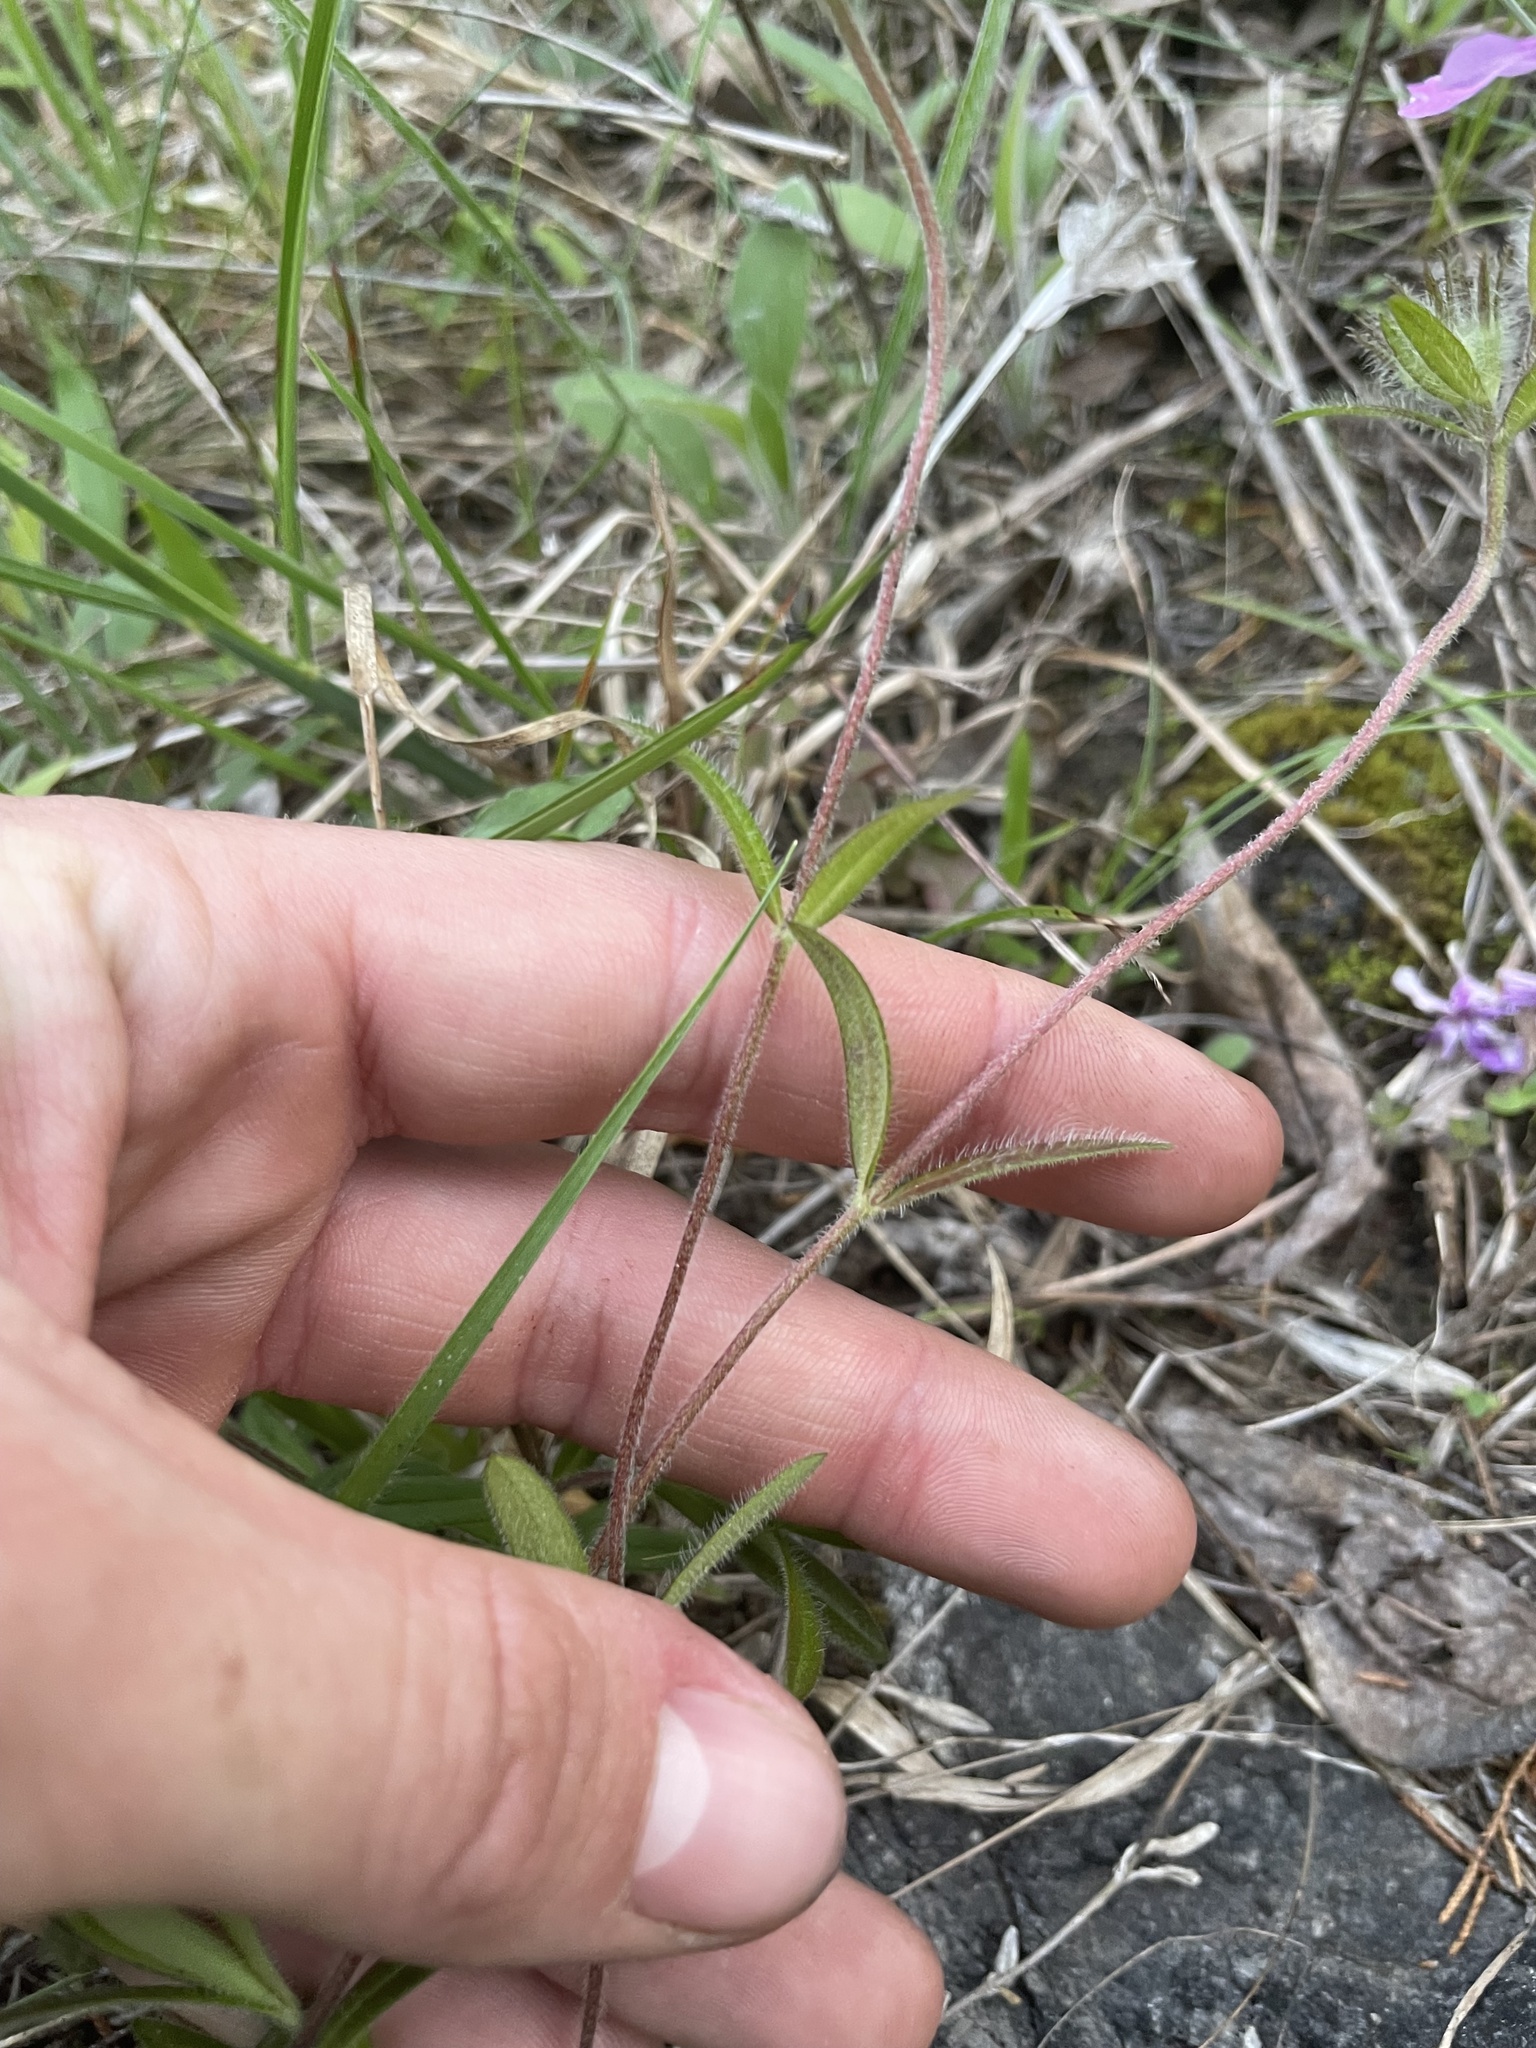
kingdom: Plantae
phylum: Tracheophyta
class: Magnoliopsida
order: Ericales
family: Polemoniaceae
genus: Phlox
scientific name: Phlox amoena
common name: Hairy phlox
